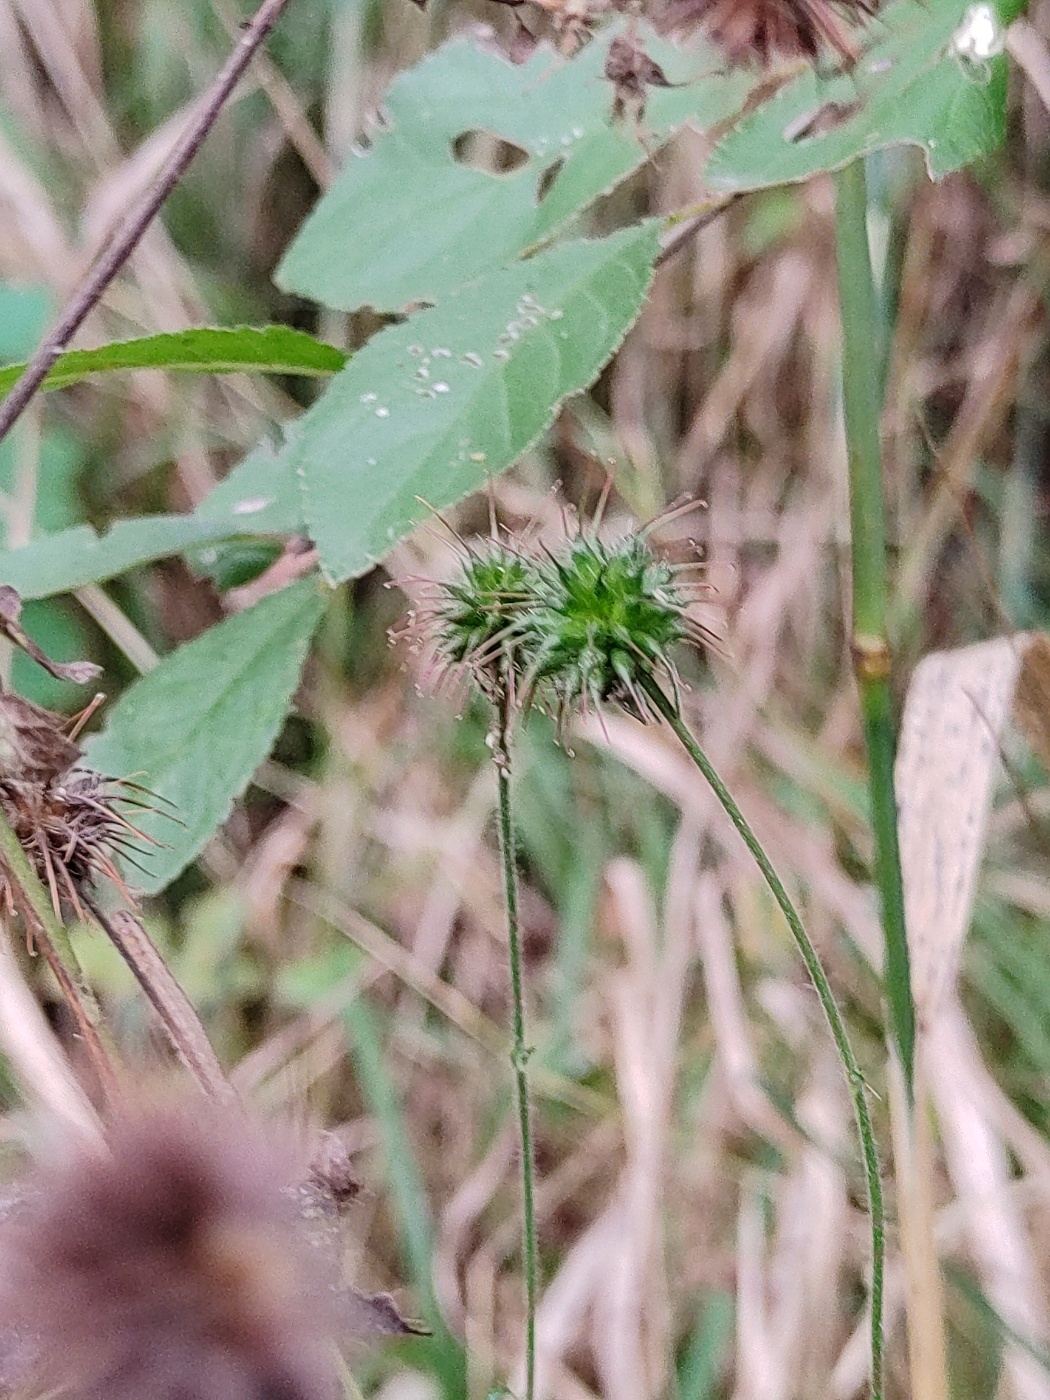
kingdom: Plantae
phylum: Tracheophyta
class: Magnoliopsida
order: Rosales
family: Rosaceae
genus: Geum
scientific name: Geum urbanum
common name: Wood avens
